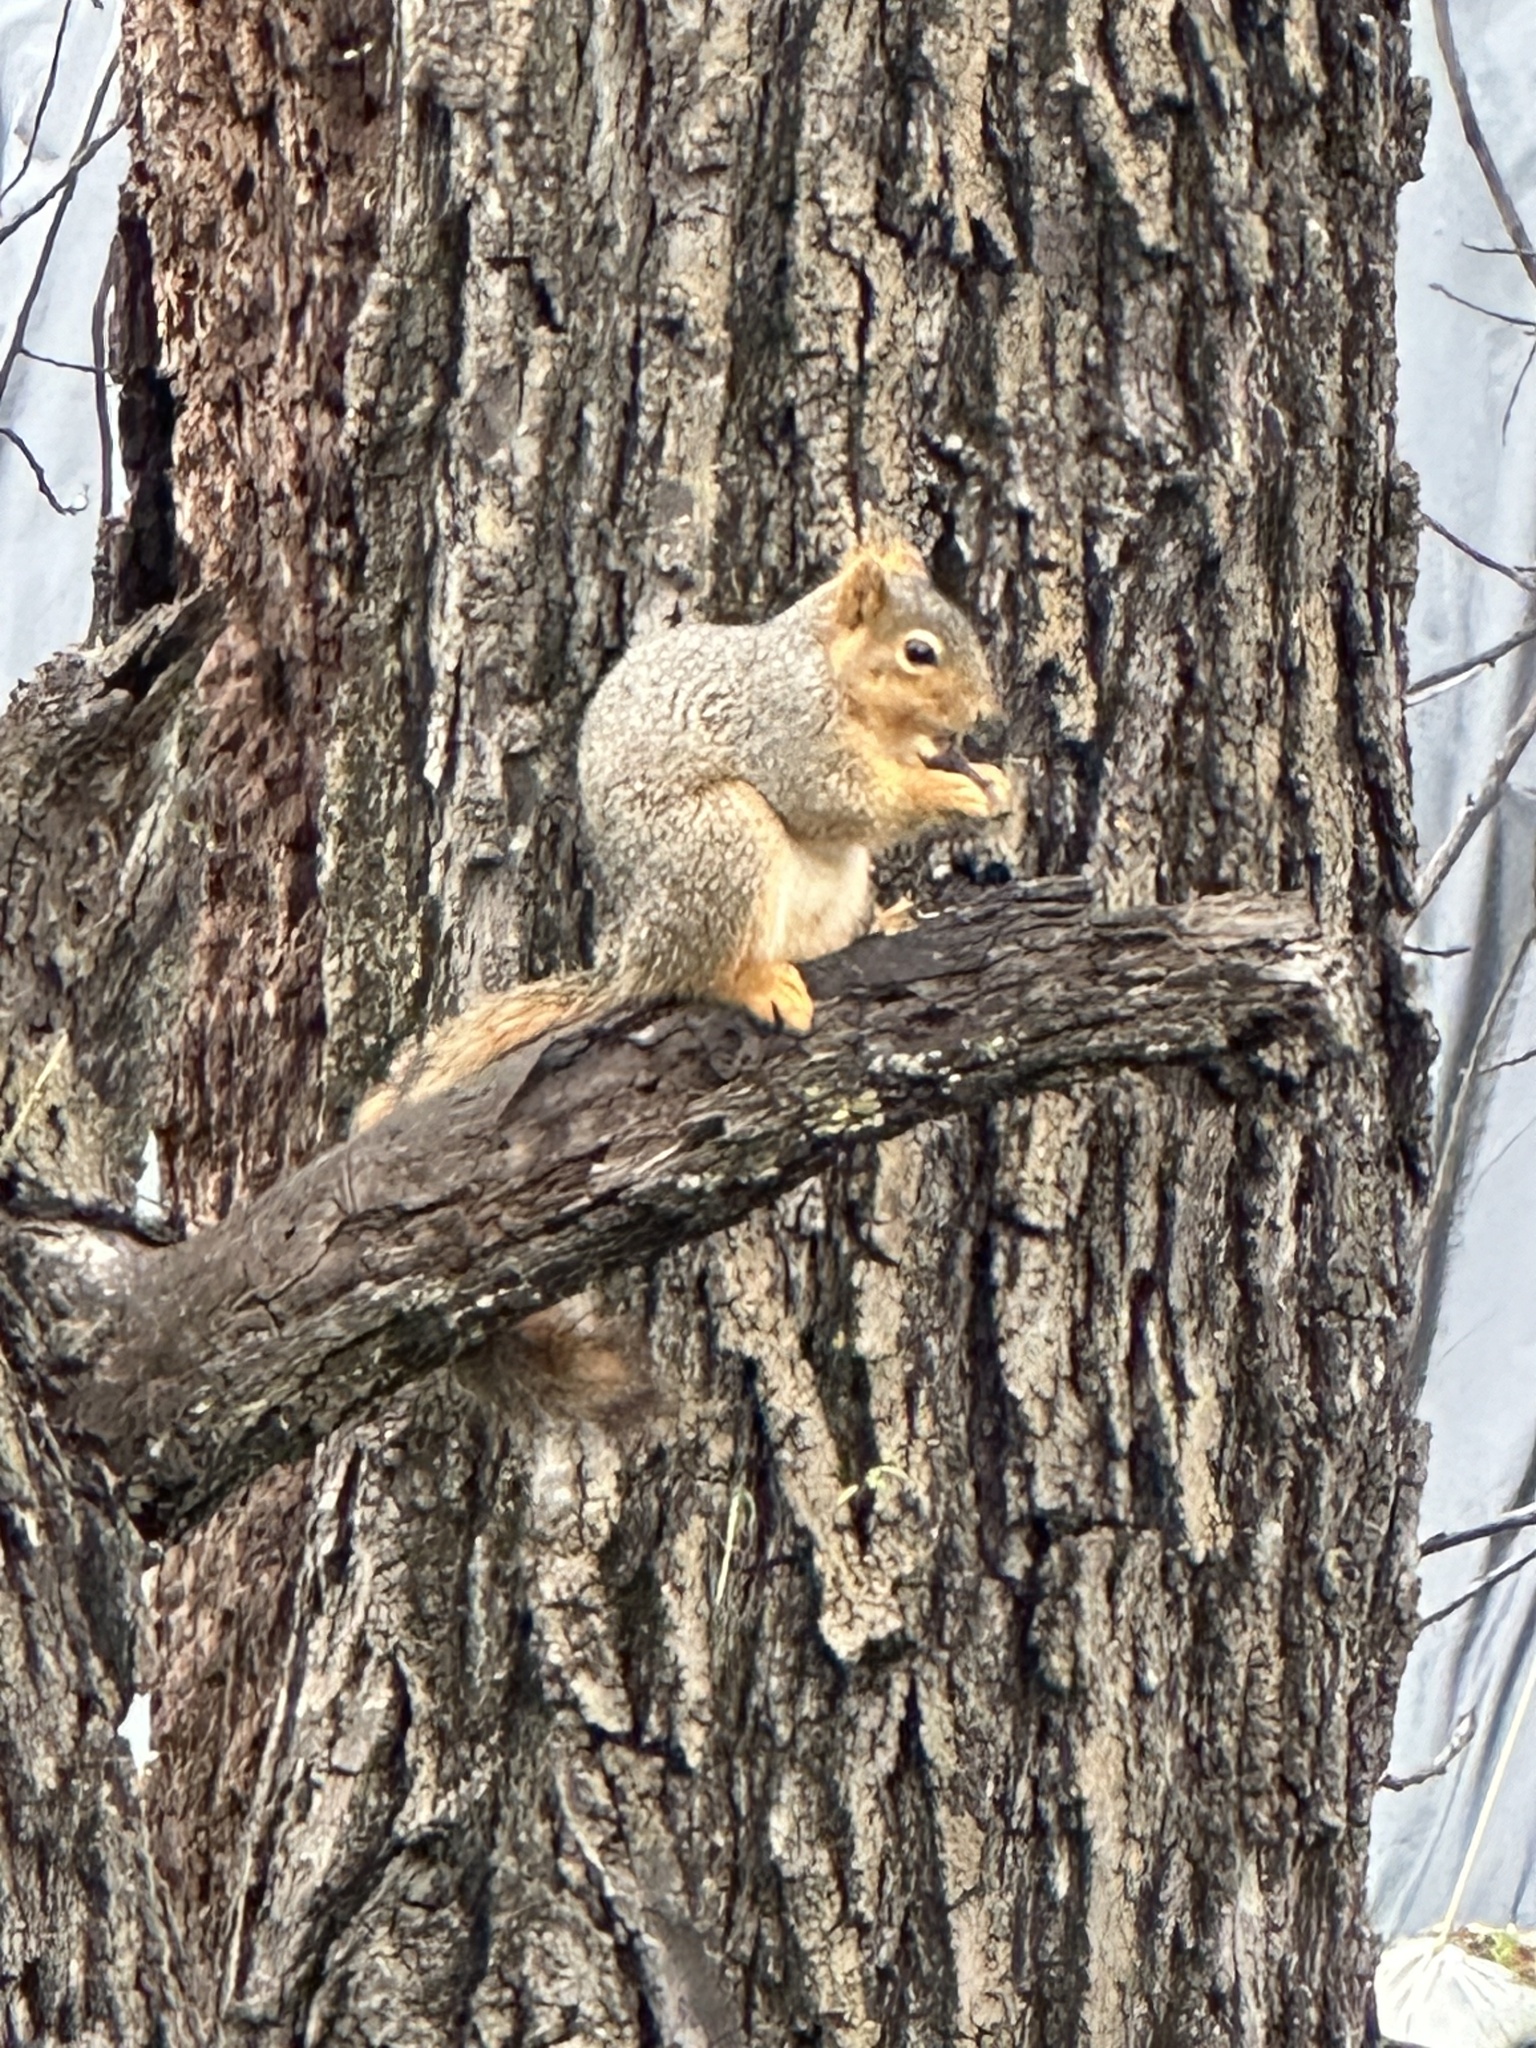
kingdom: Animalia
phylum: Chordata
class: Mammalia
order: Rodentia
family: Sciuridae
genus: Sciurus
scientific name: Sciurus niger
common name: Fox squirrel
